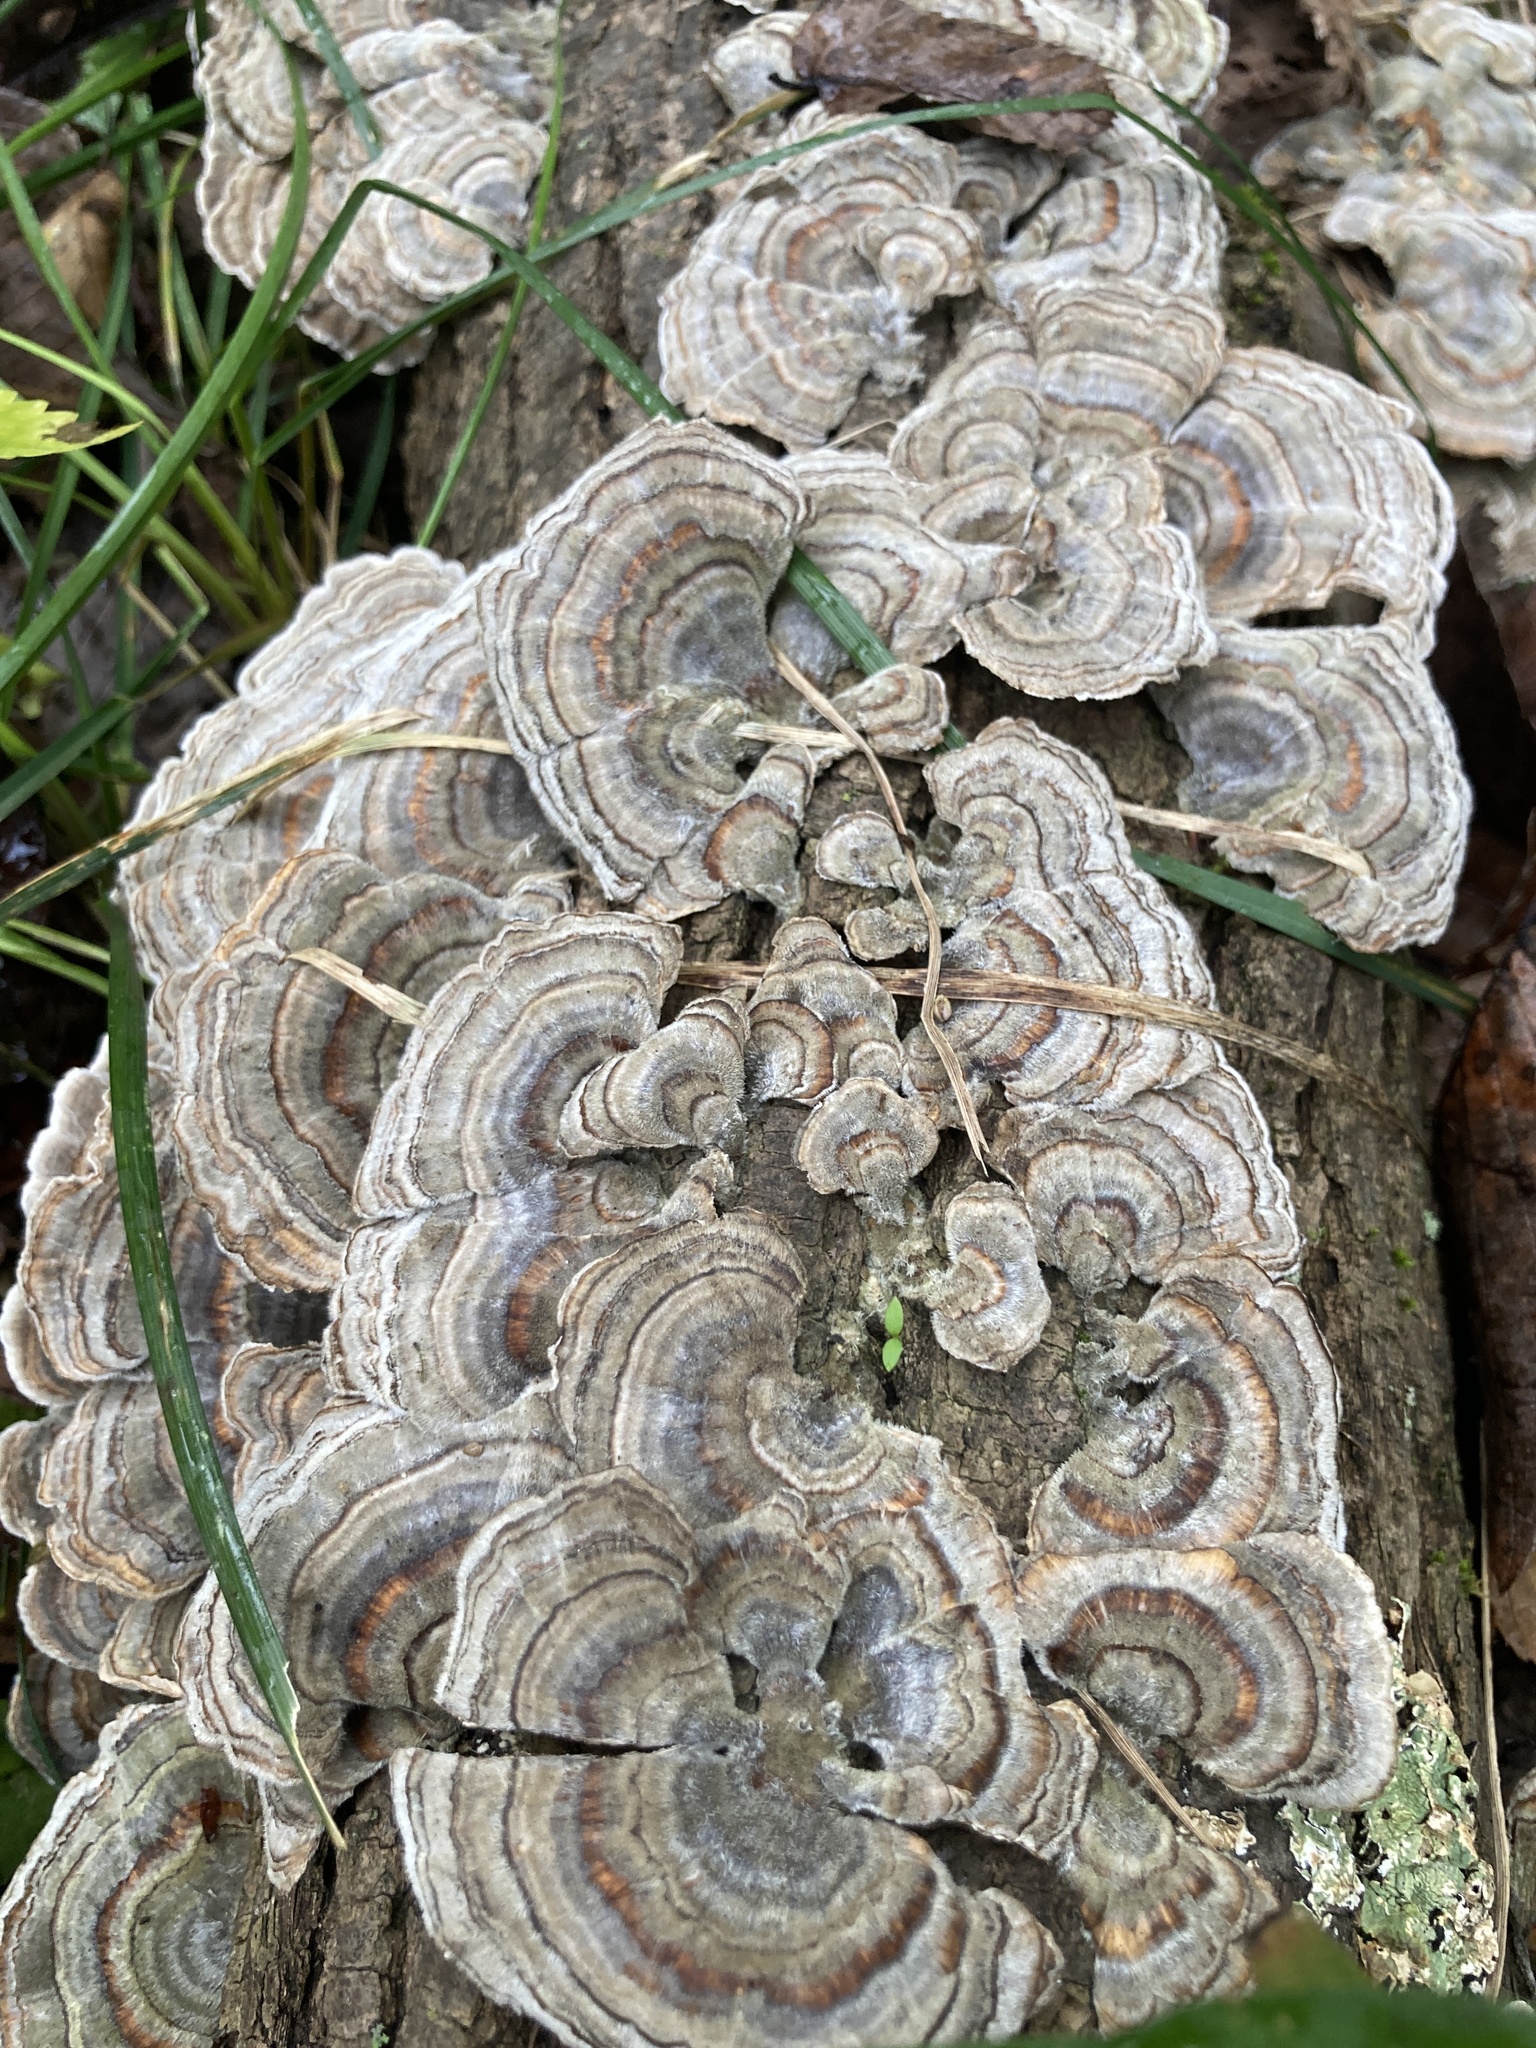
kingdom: Fungi
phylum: Basidiomycota
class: Agaricomycetes
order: Polyporales
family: Polyporaceae
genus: Trametes
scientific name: Trametes versicolor
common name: Turkeytail
